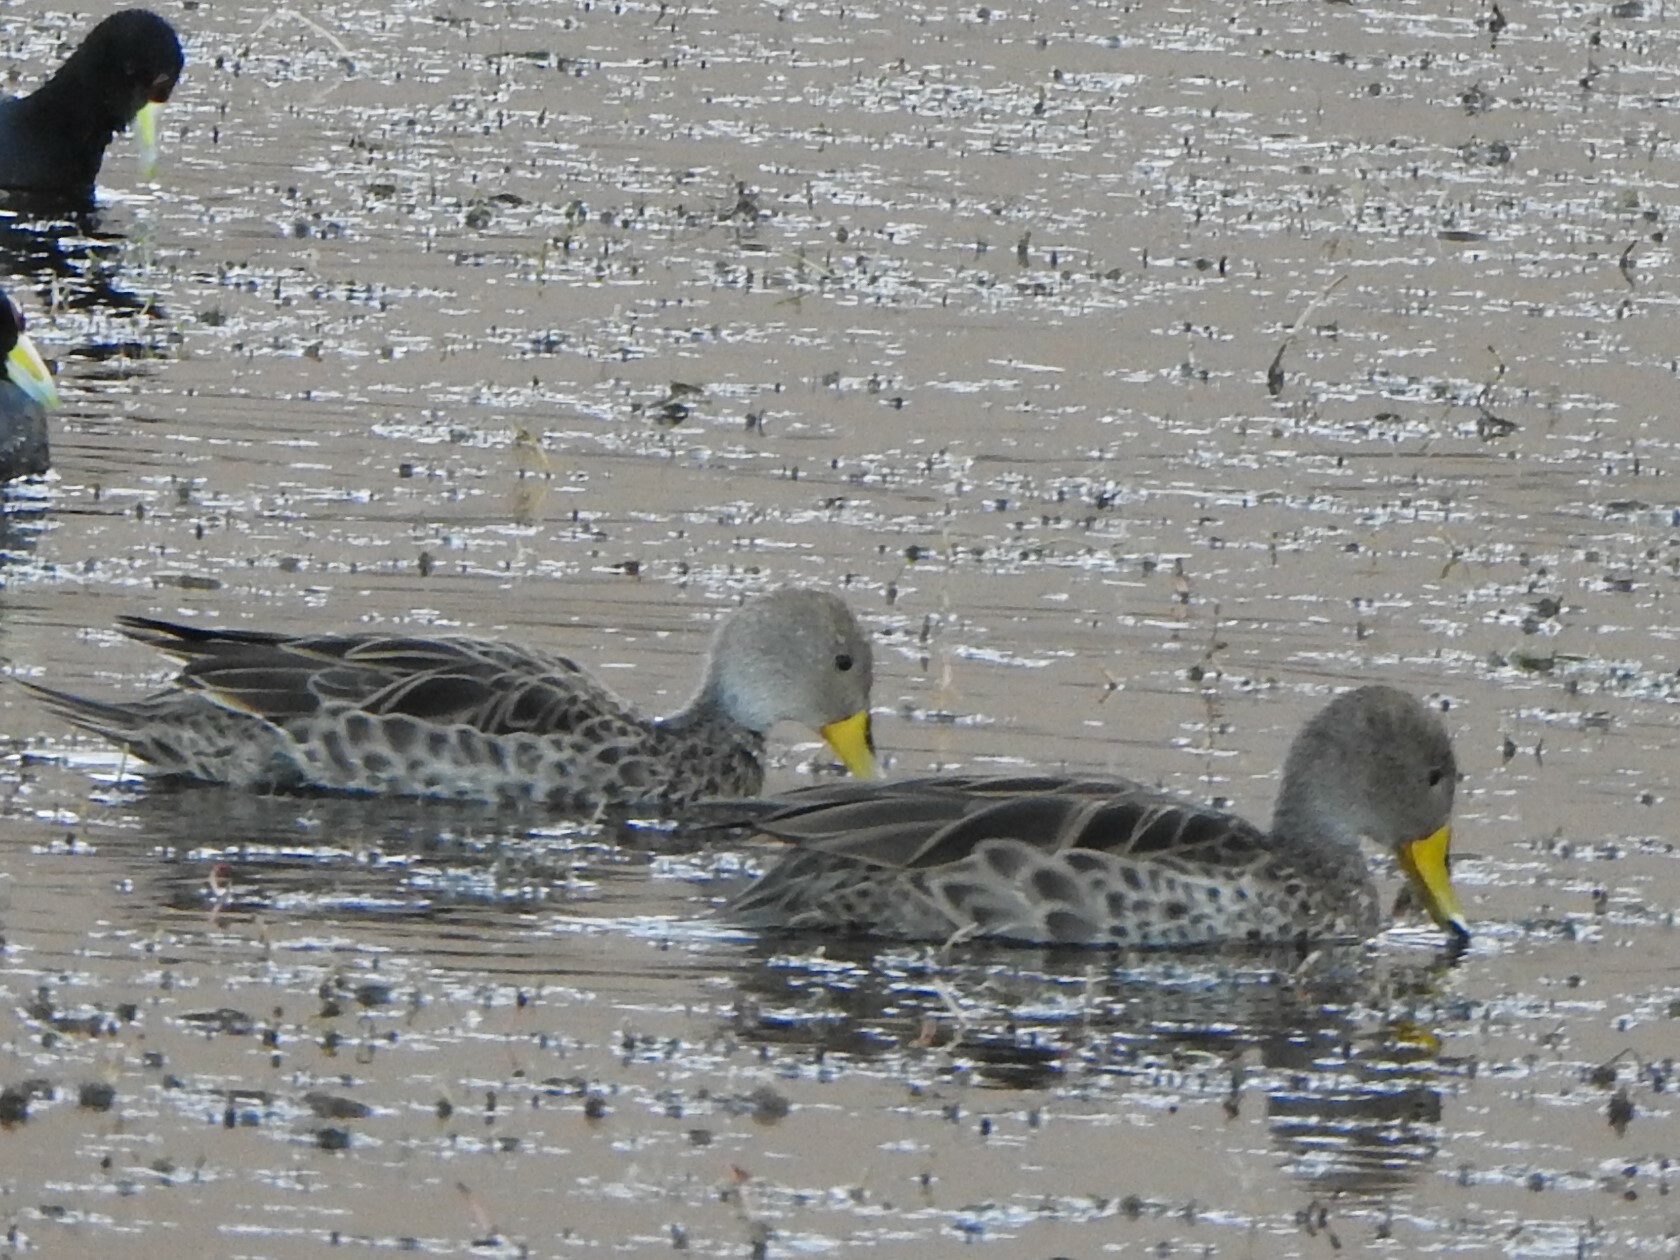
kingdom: Animalia
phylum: Chordata
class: Aves
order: Anseriformes
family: Anatidae
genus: Anas
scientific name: Anas georgica
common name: Yellow-billed pintail
